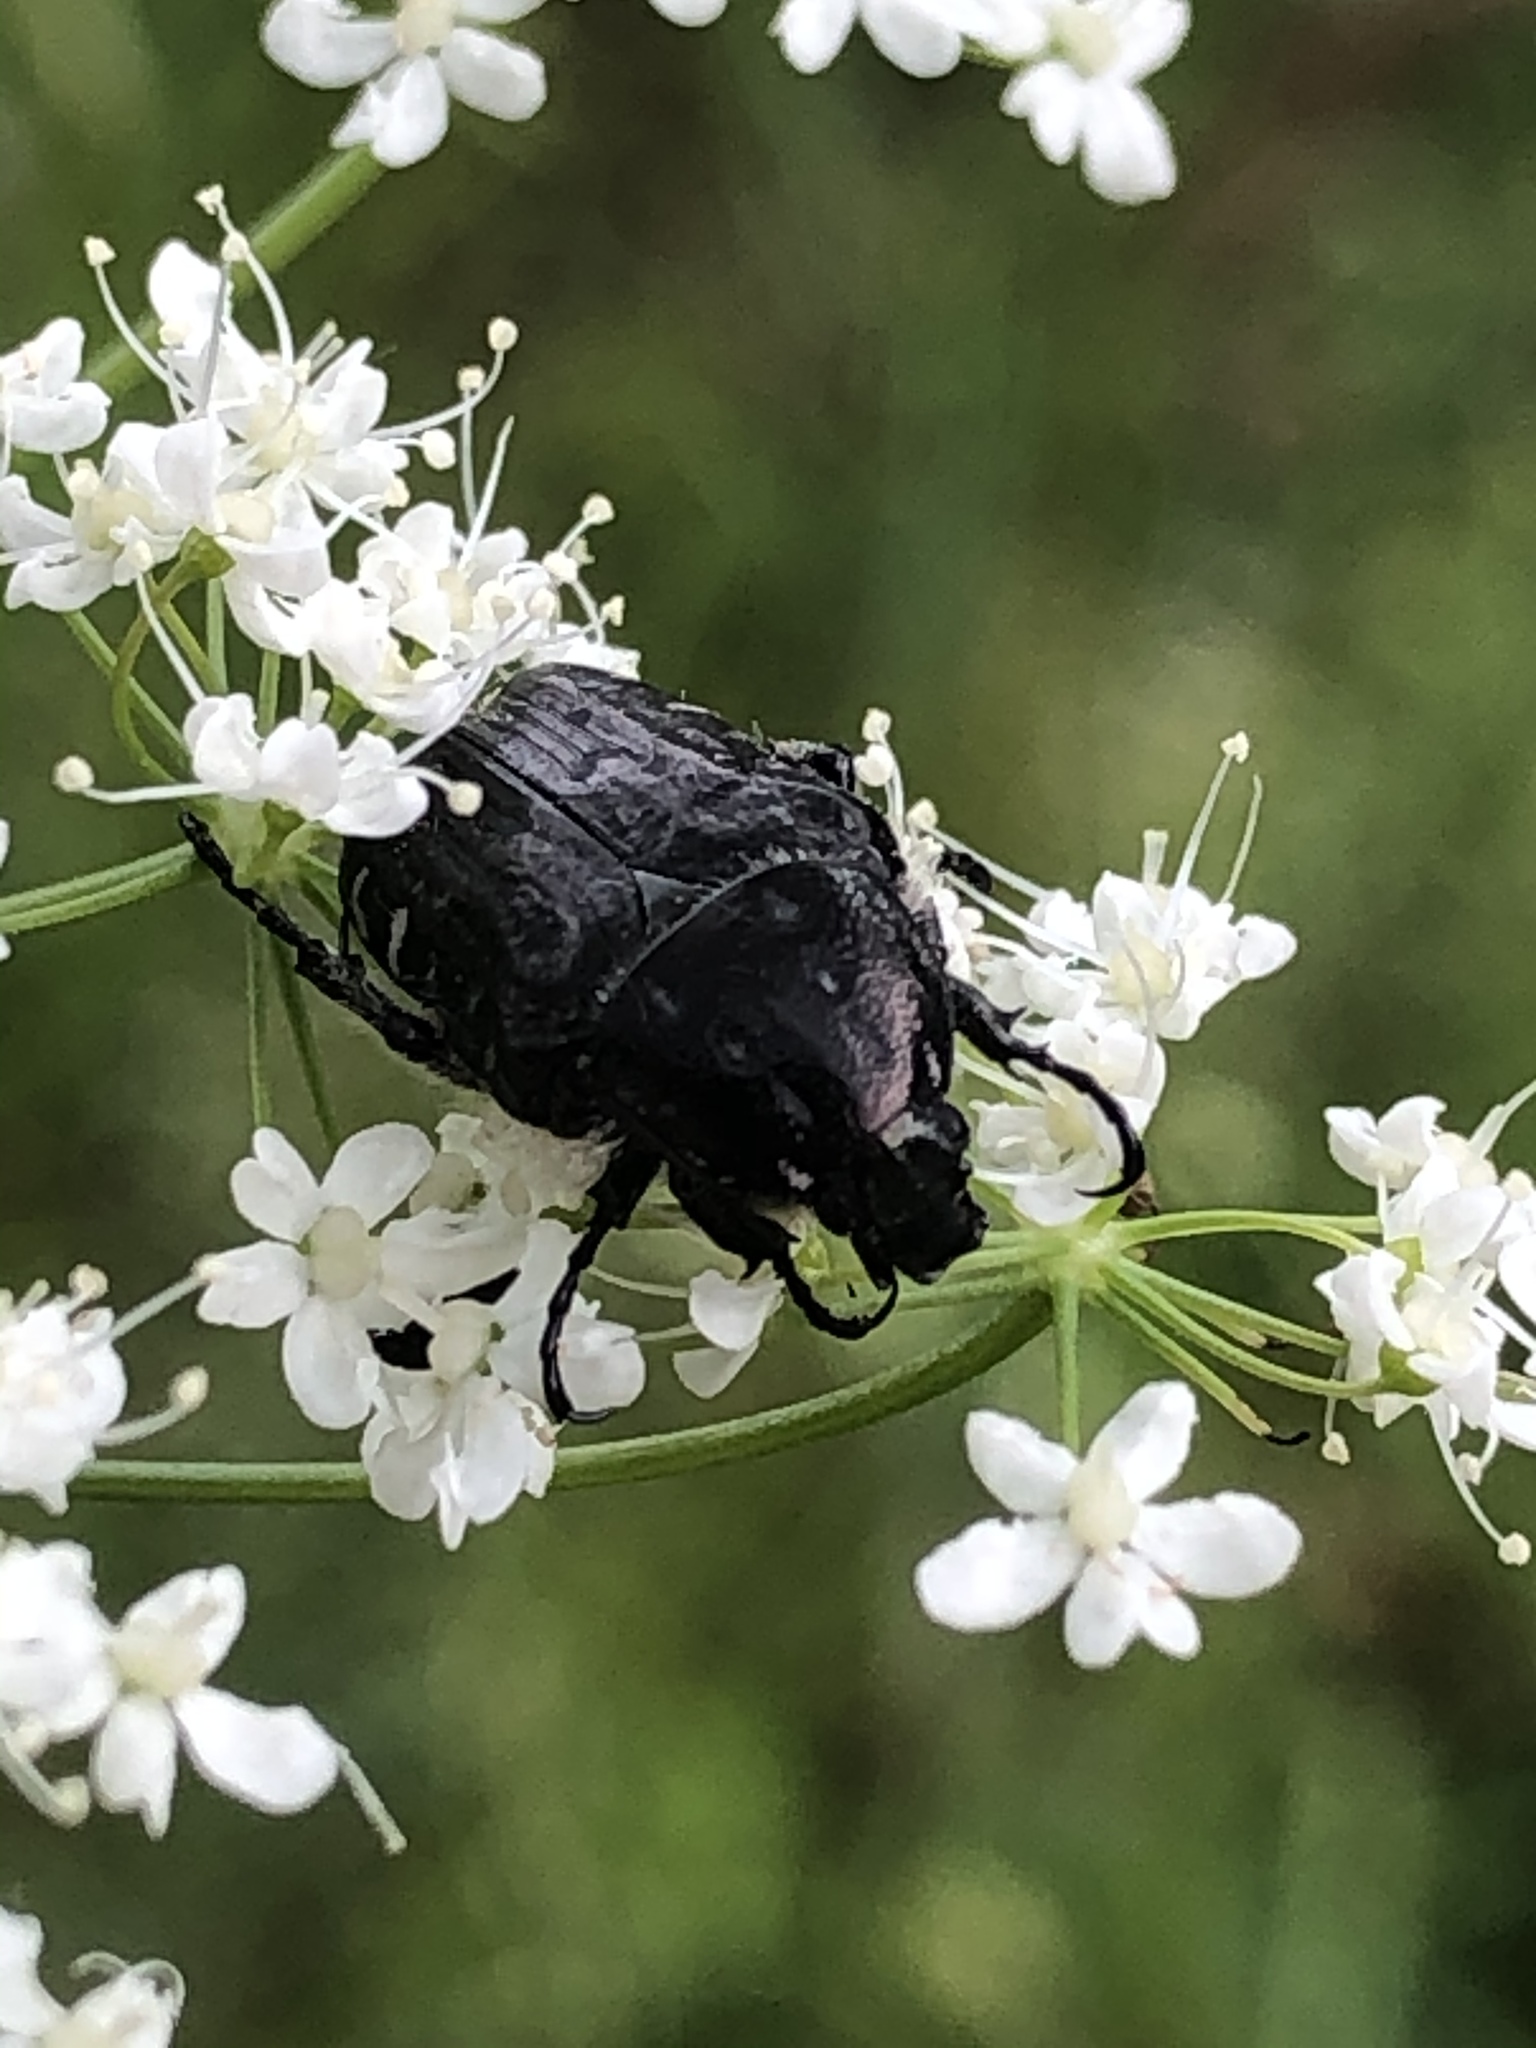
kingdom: Animalia
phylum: Arthropoda
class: Insecta
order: Coleoptera
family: Scarabaeidae
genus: Oxythyrea
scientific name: Oxythyrea funesta
